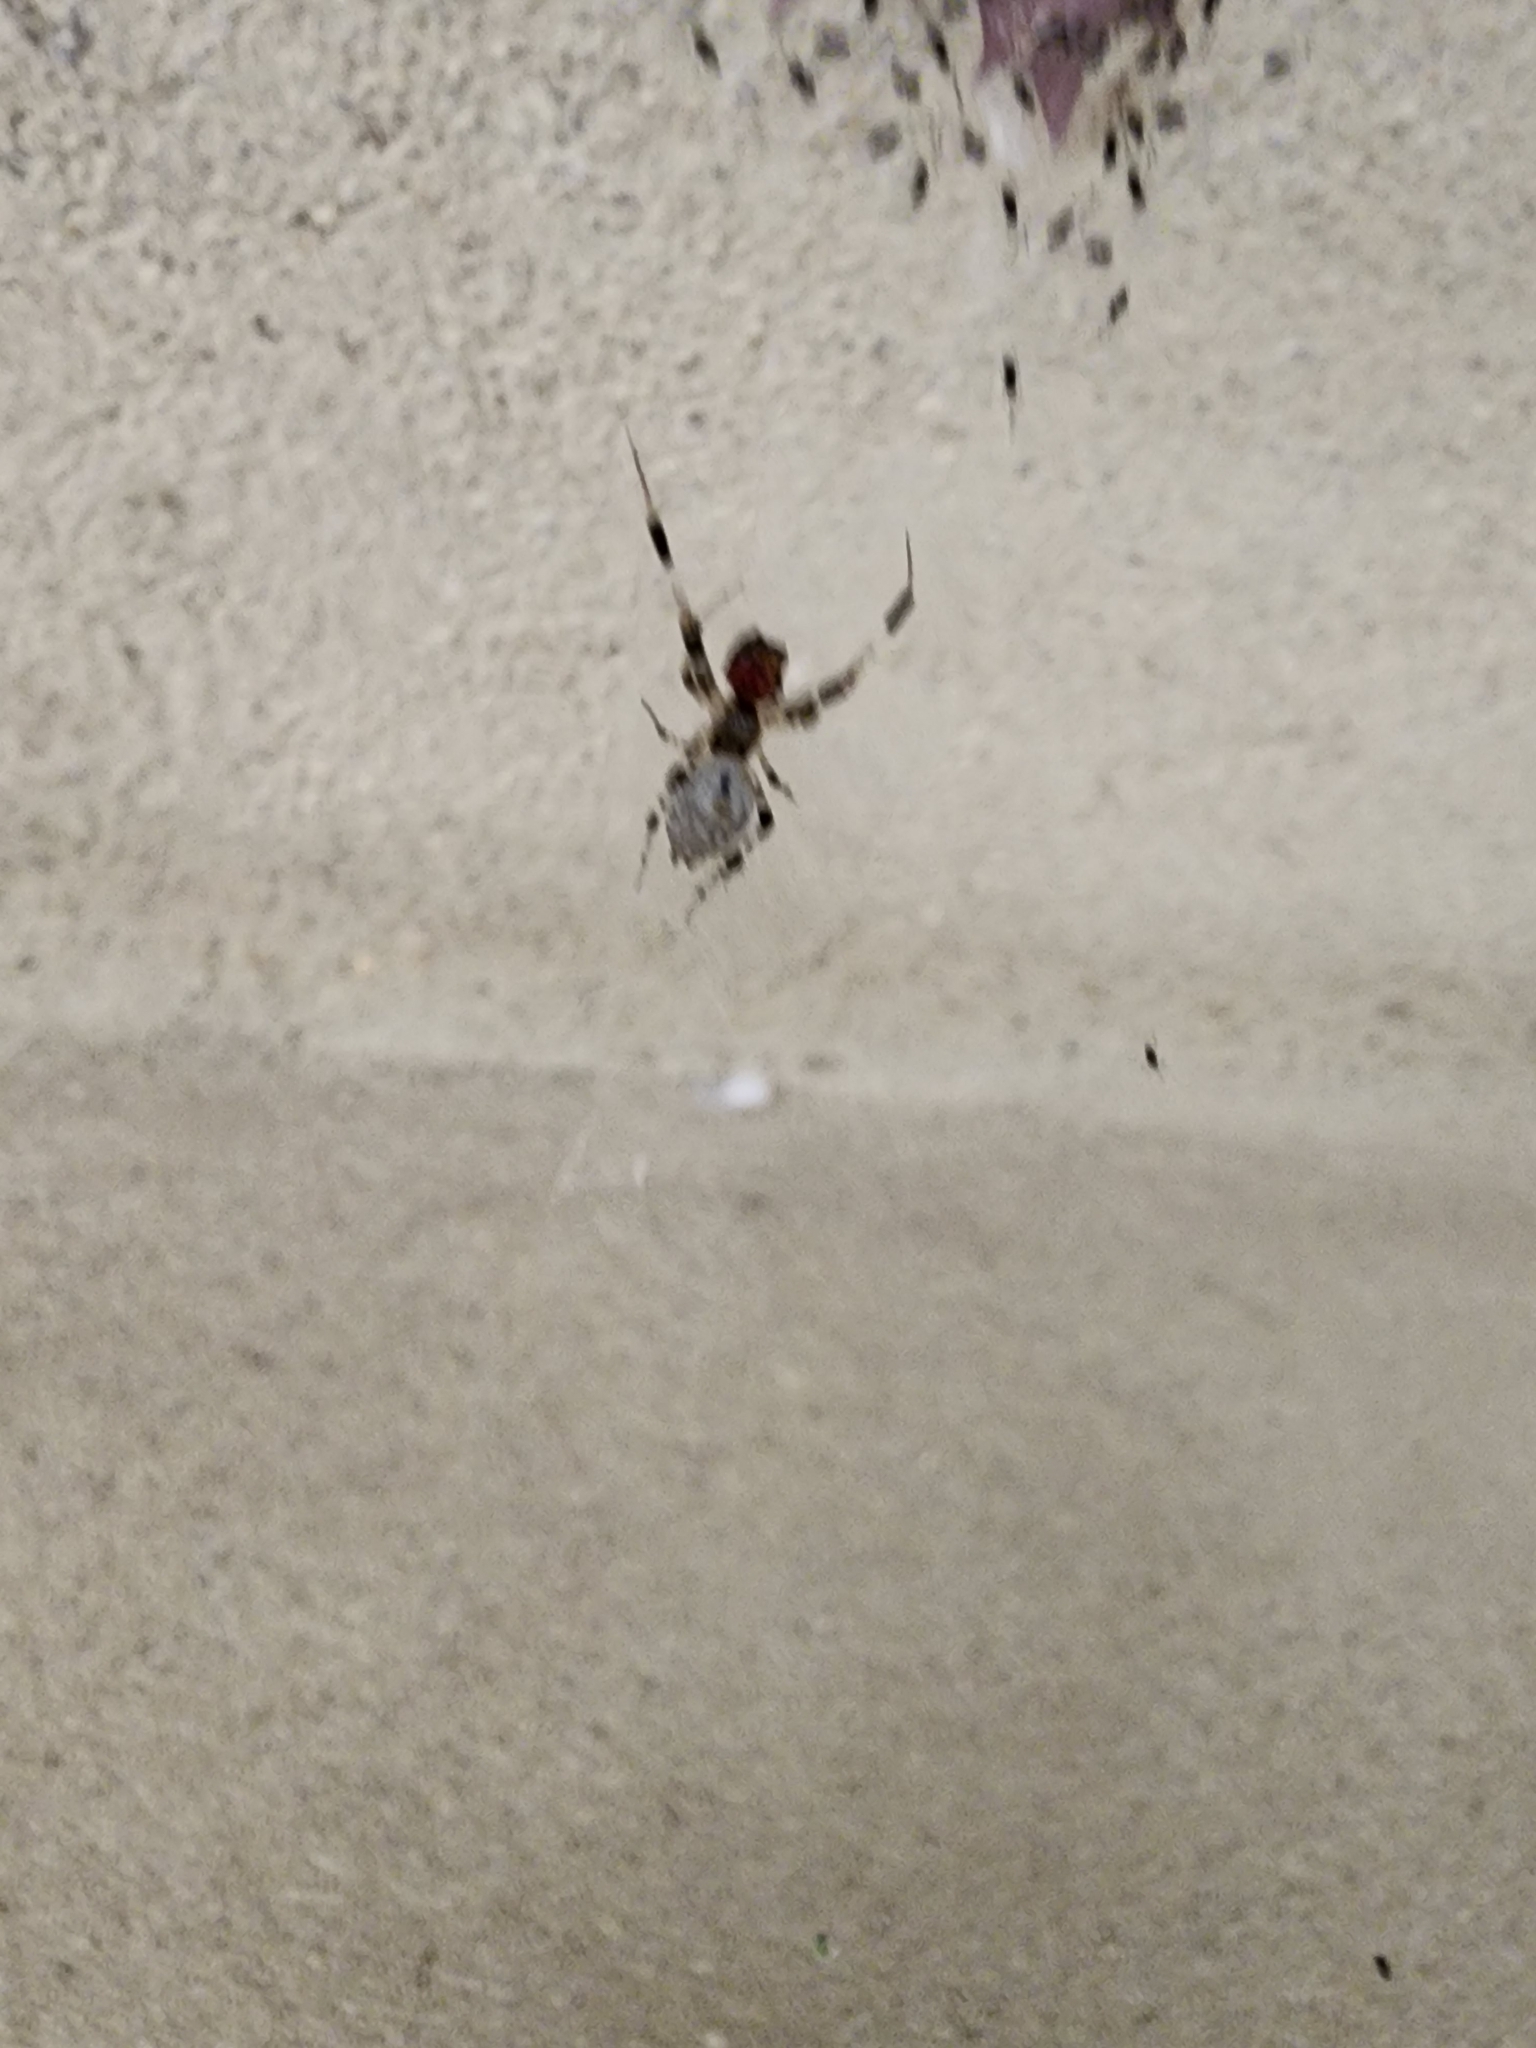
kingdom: Animalia
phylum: Arthropoda
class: Arachnida
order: Araneae
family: Uloboridae
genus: Zosis
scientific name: Zosis geniculata
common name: Hackled orb weavers
